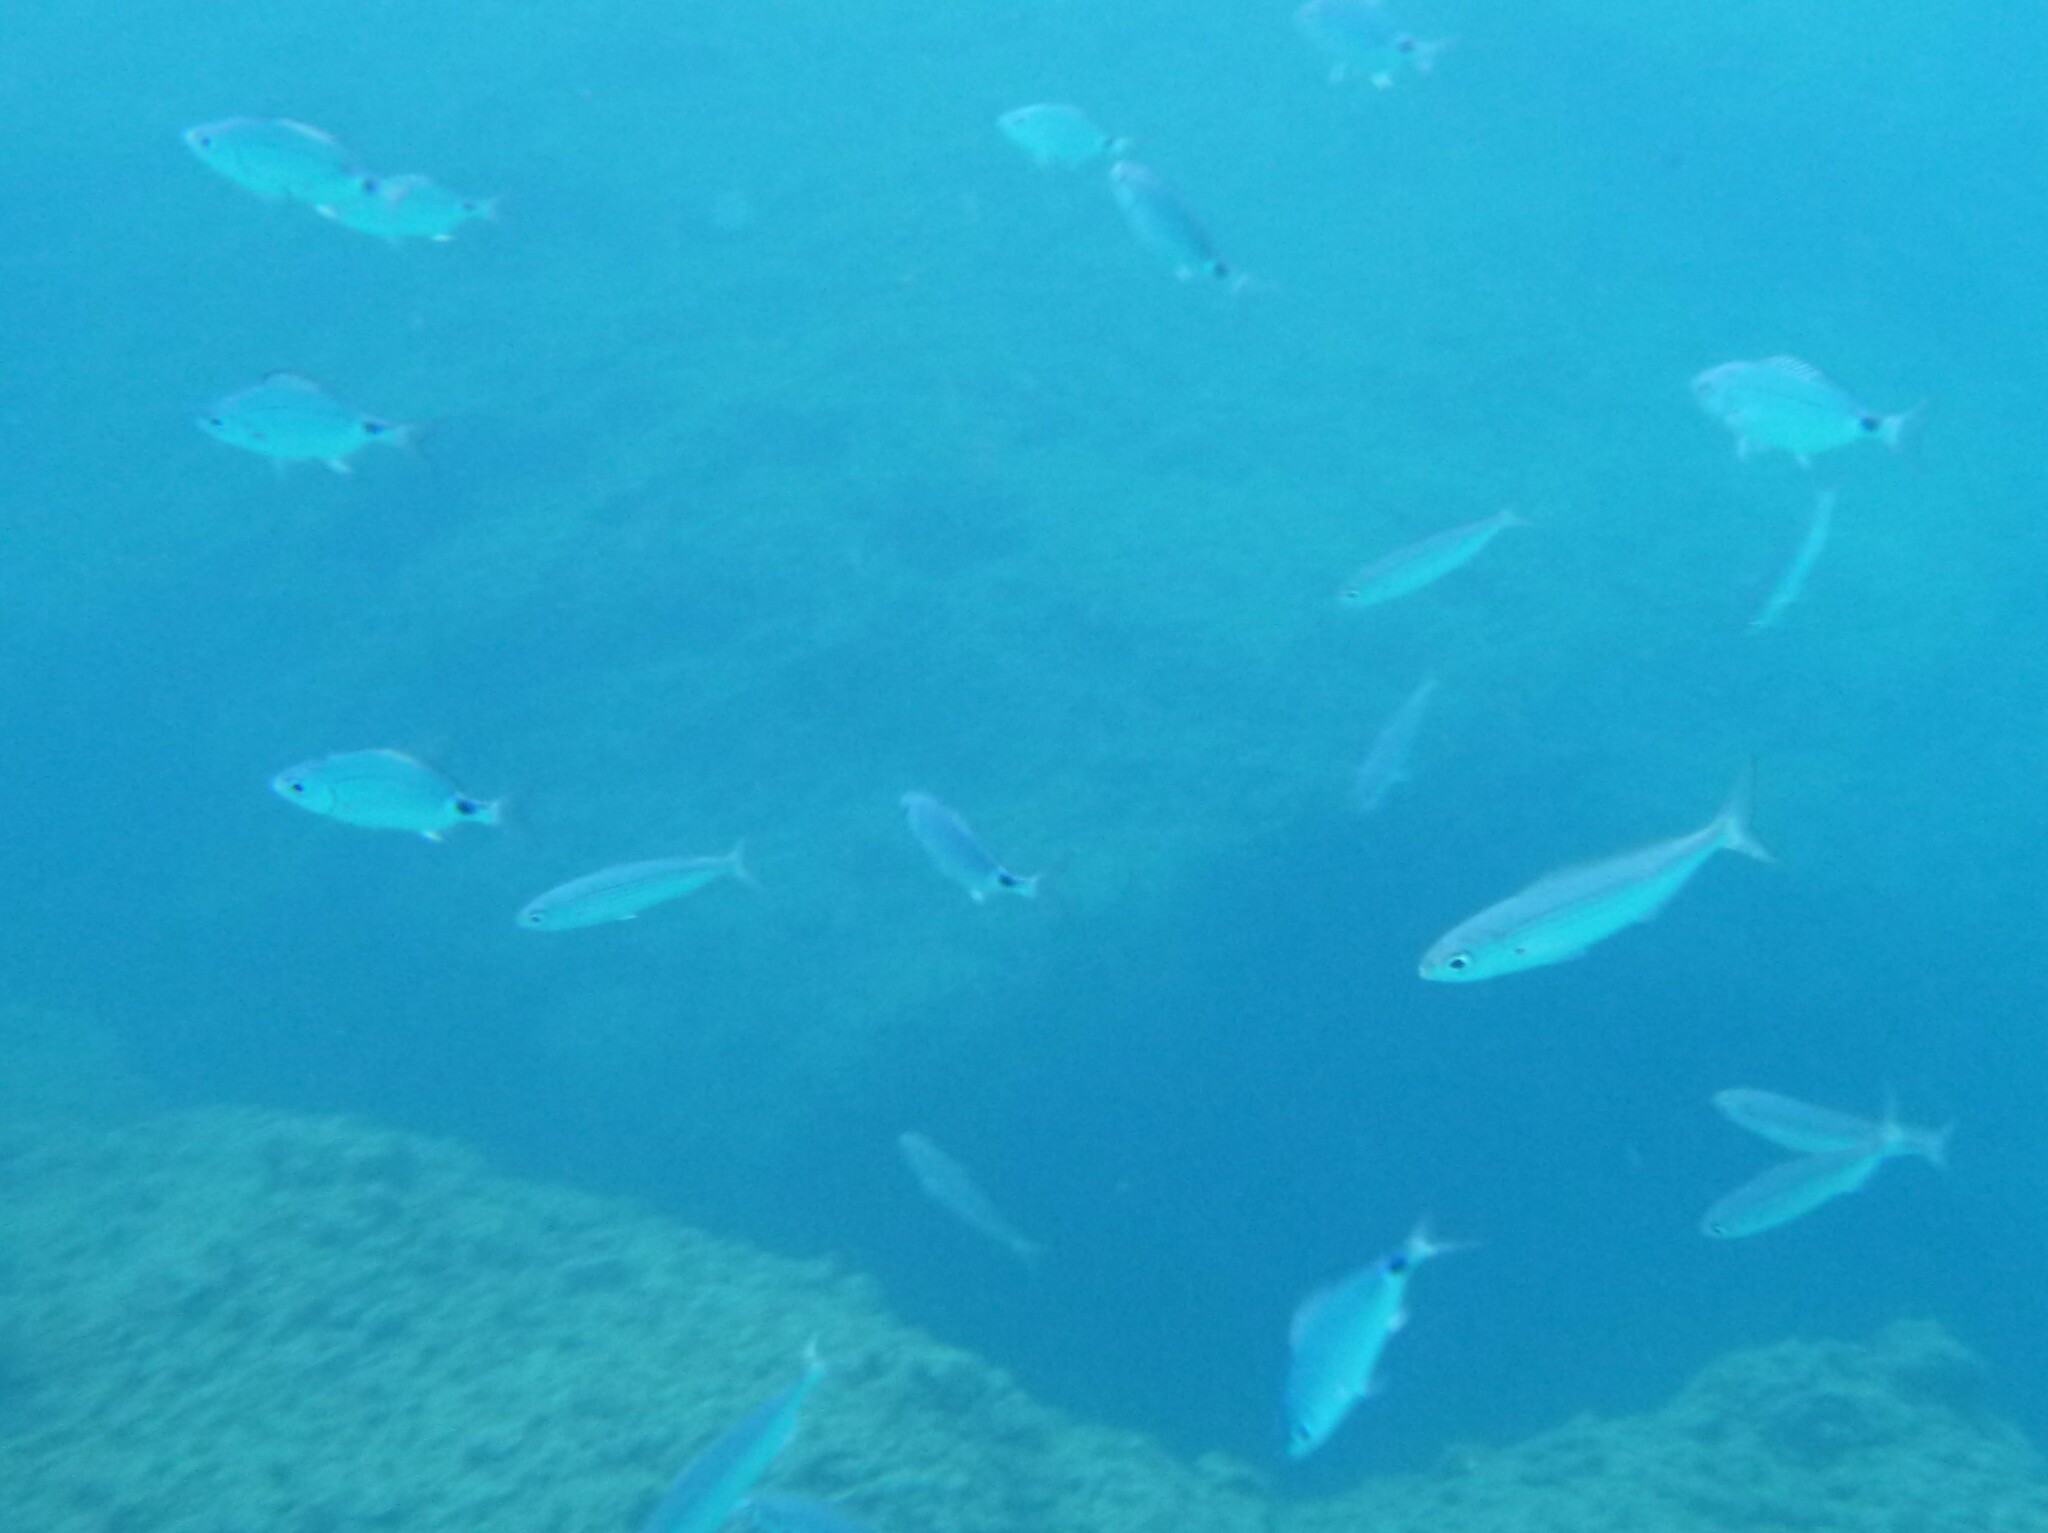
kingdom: Animalia
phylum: Chordata
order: Perciformes
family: Sparidae
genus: Oblada
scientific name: Oblada melanura
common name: Saddled seabream
